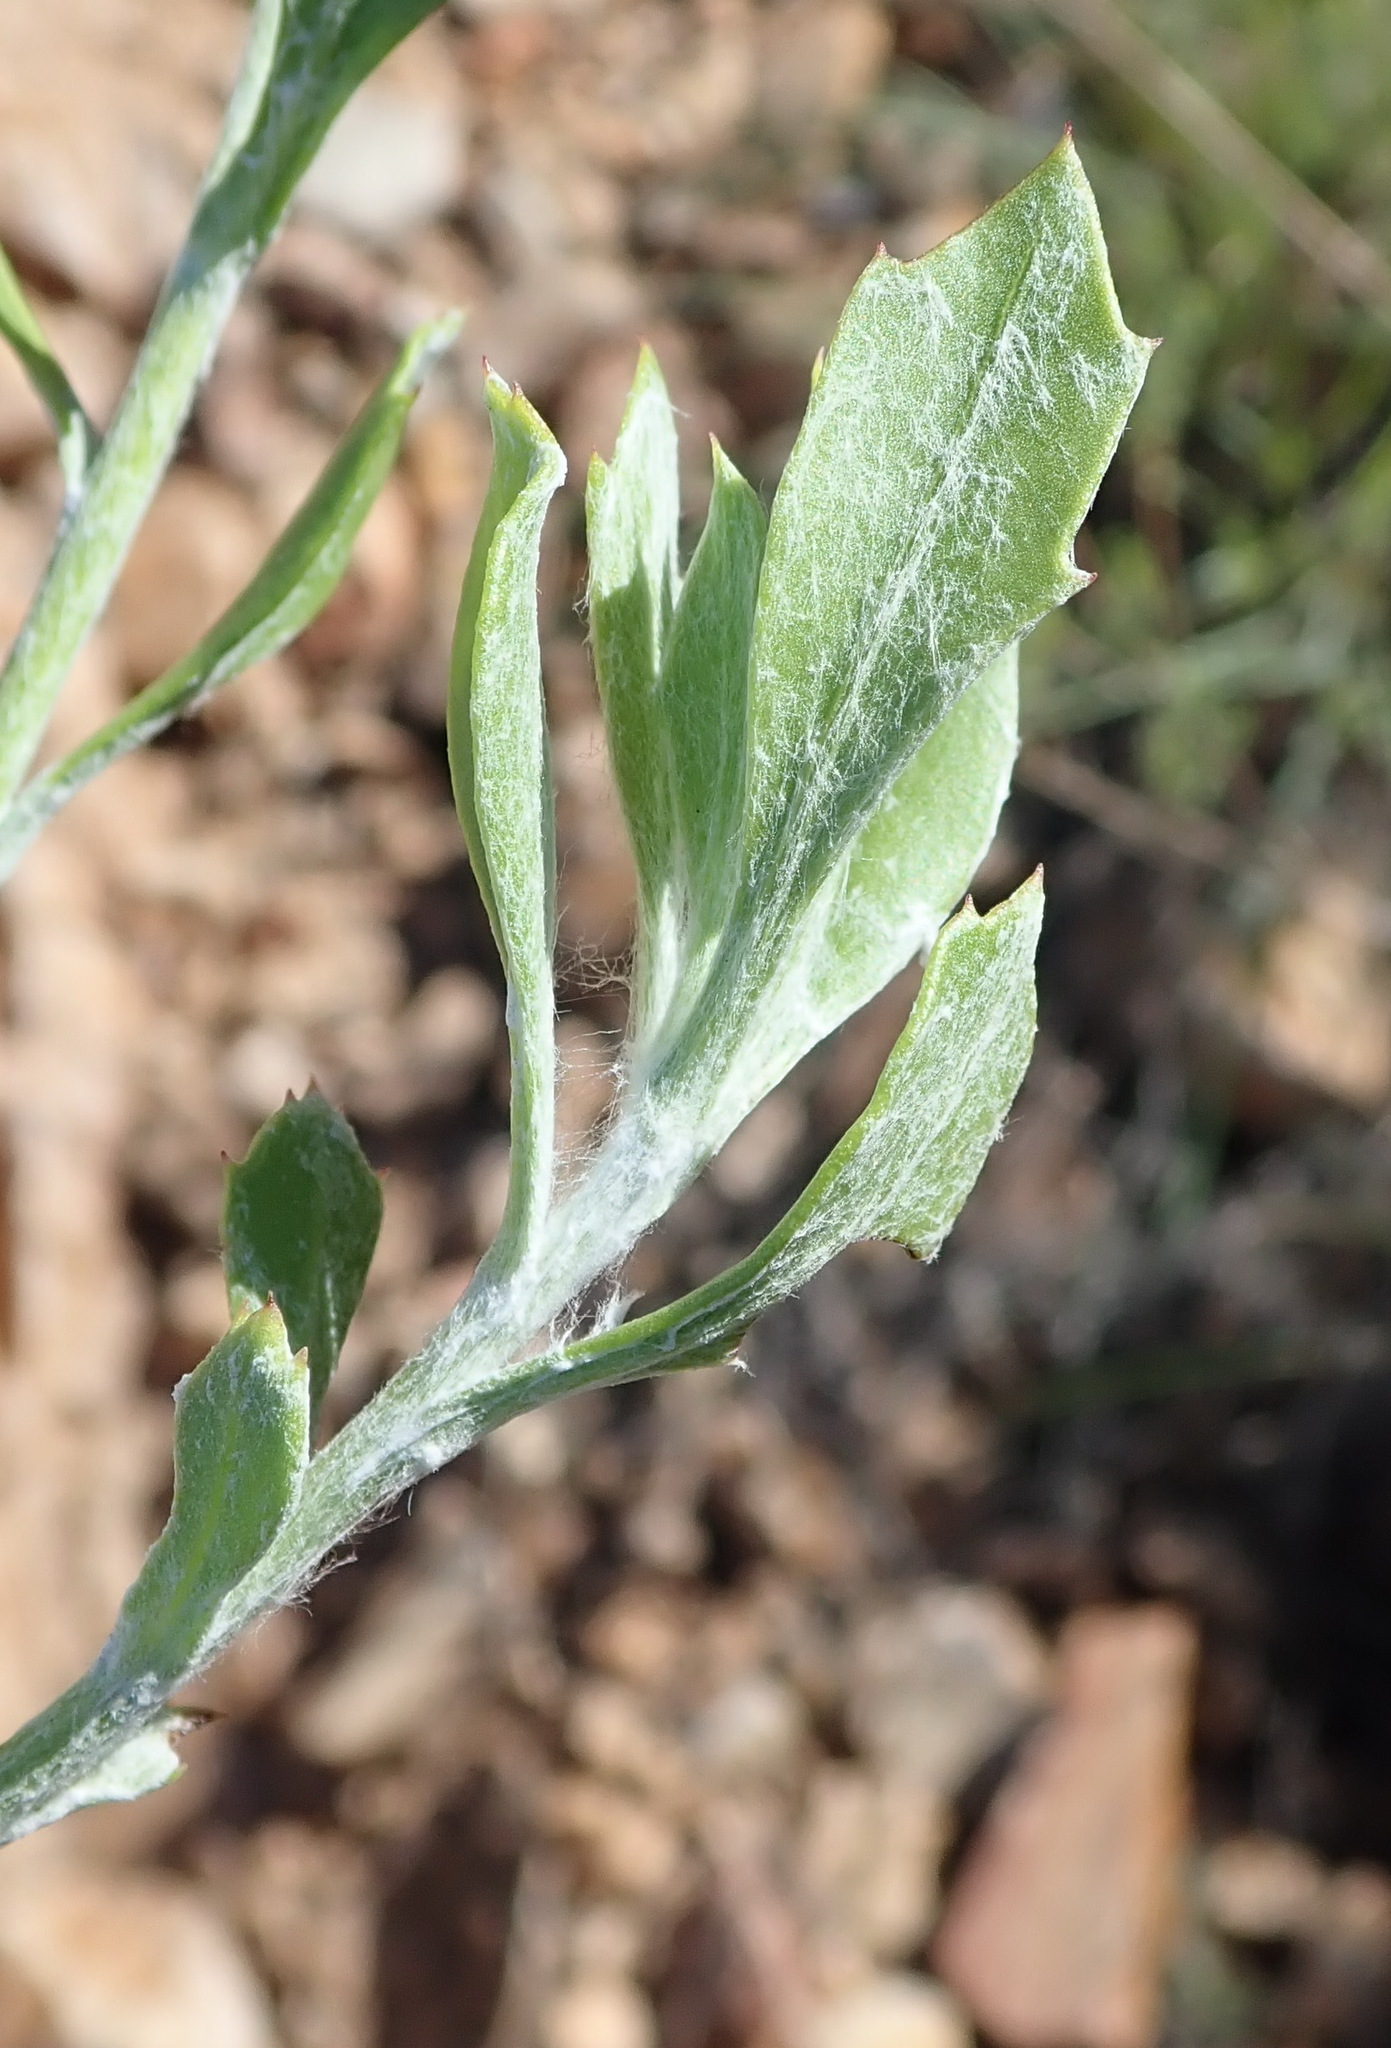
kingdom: Plantae
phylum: Tracheophyta
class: Magnoliopsida
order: Asterales
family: Asteraceae
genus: Osteospermum
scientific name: Osteospermum moniliferum
